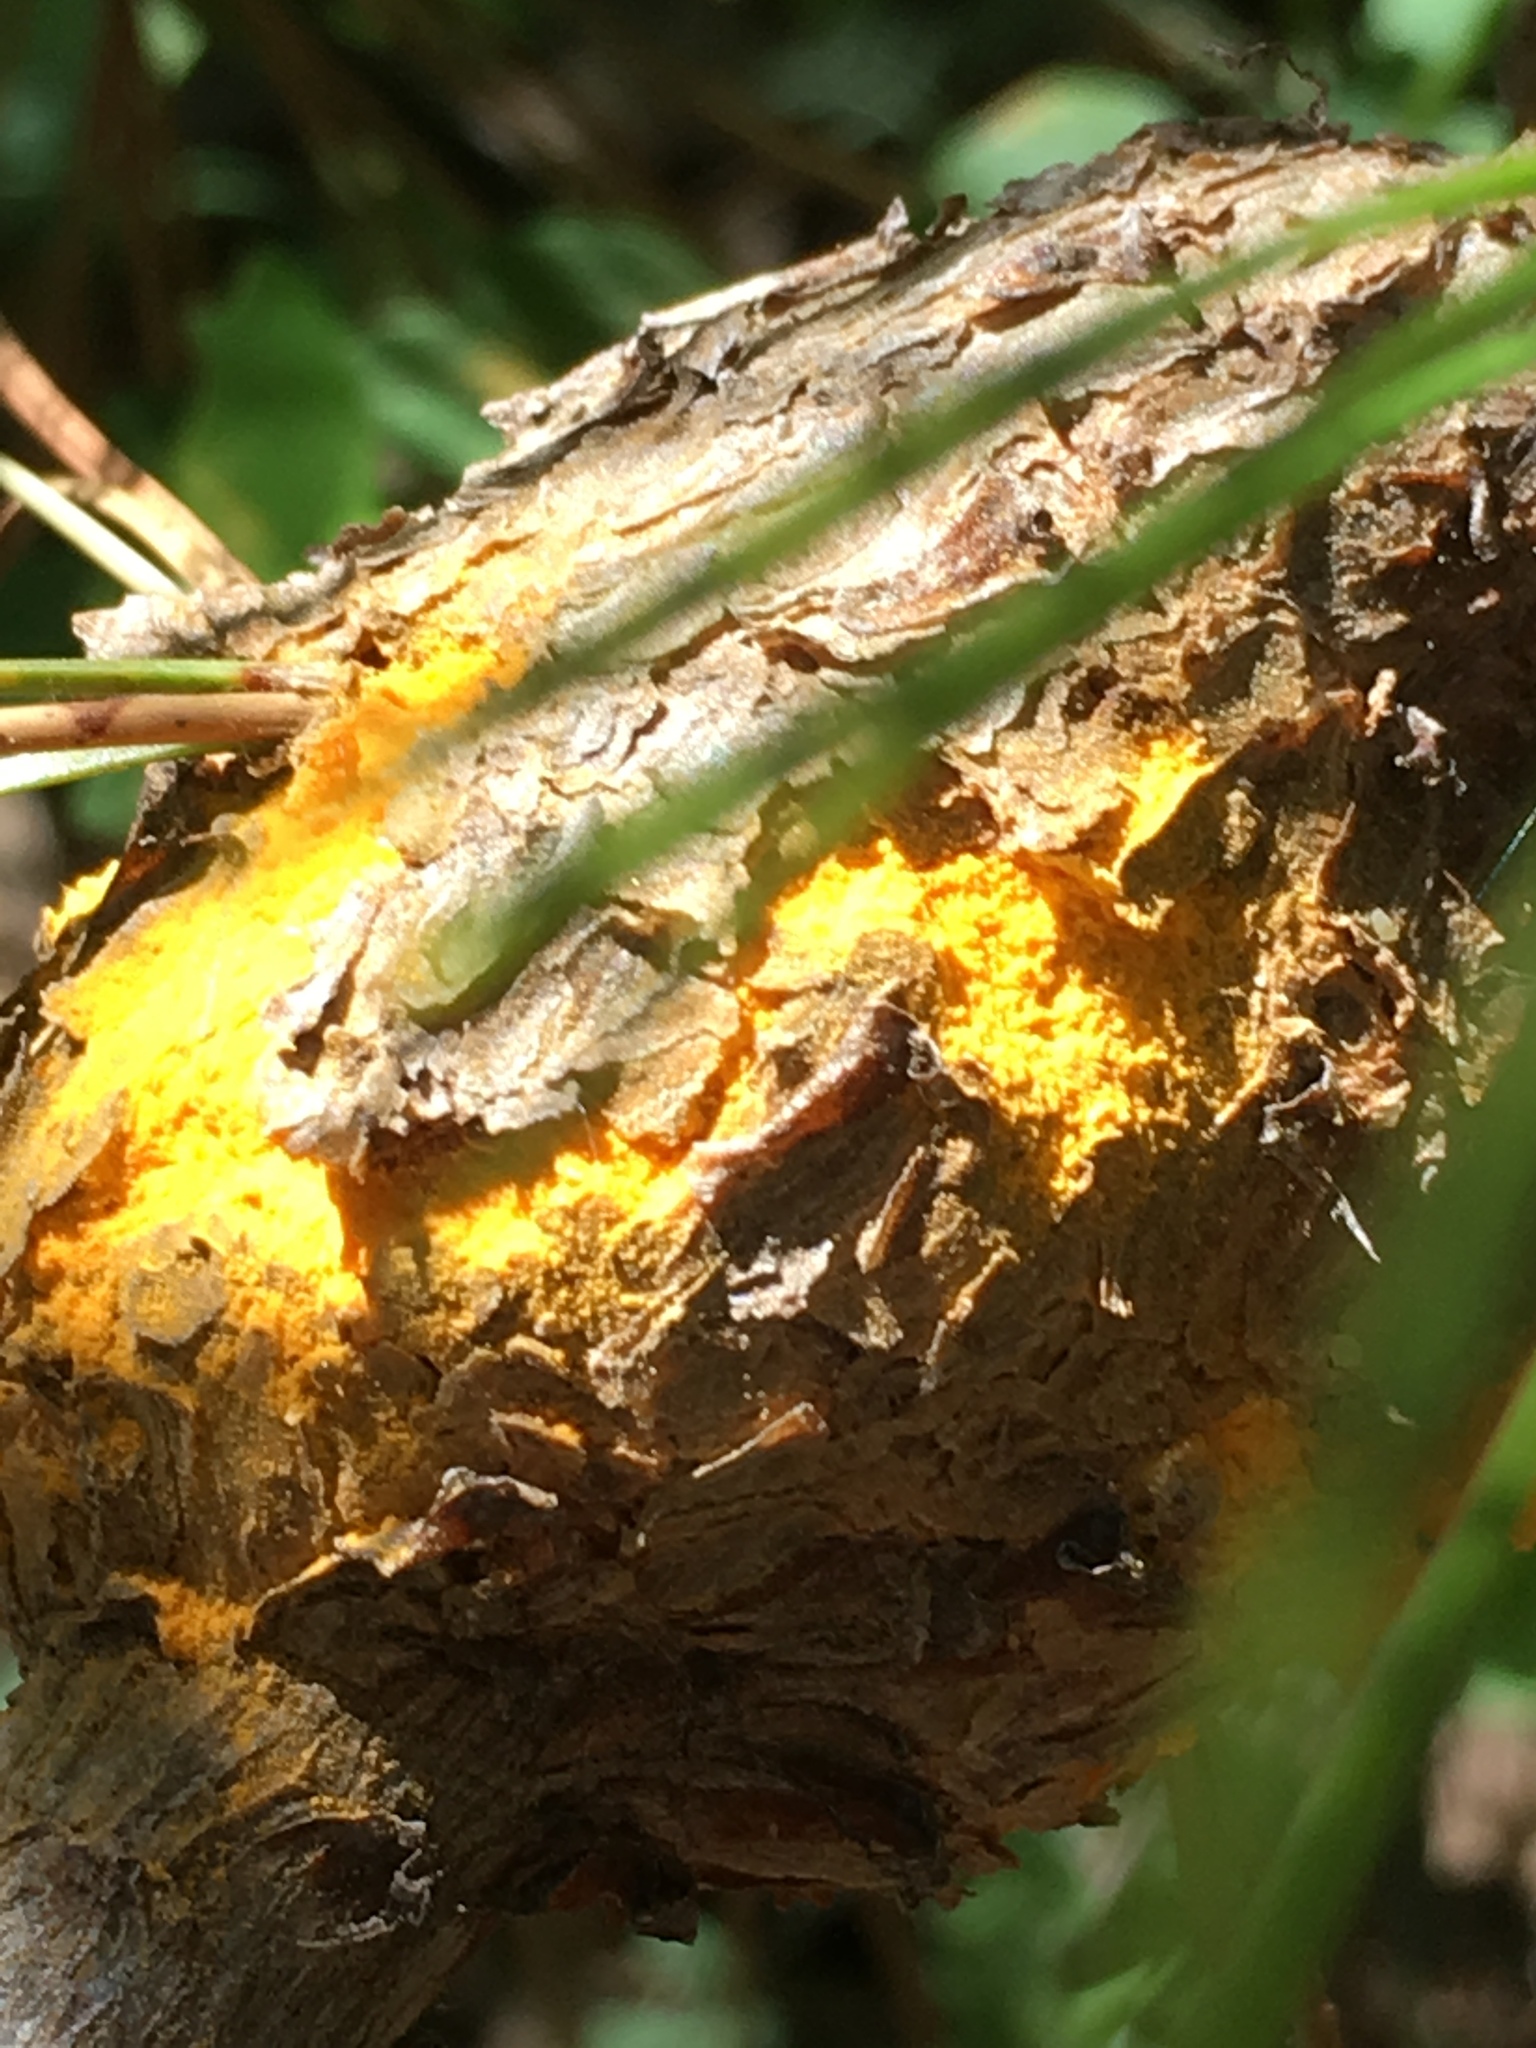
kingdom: Fungi
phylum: Basidiomycota
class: Pucciniomycetes
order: Pucciniales
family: Cronartiaceae
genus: Cronartium
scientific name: Cronartium harknessii
